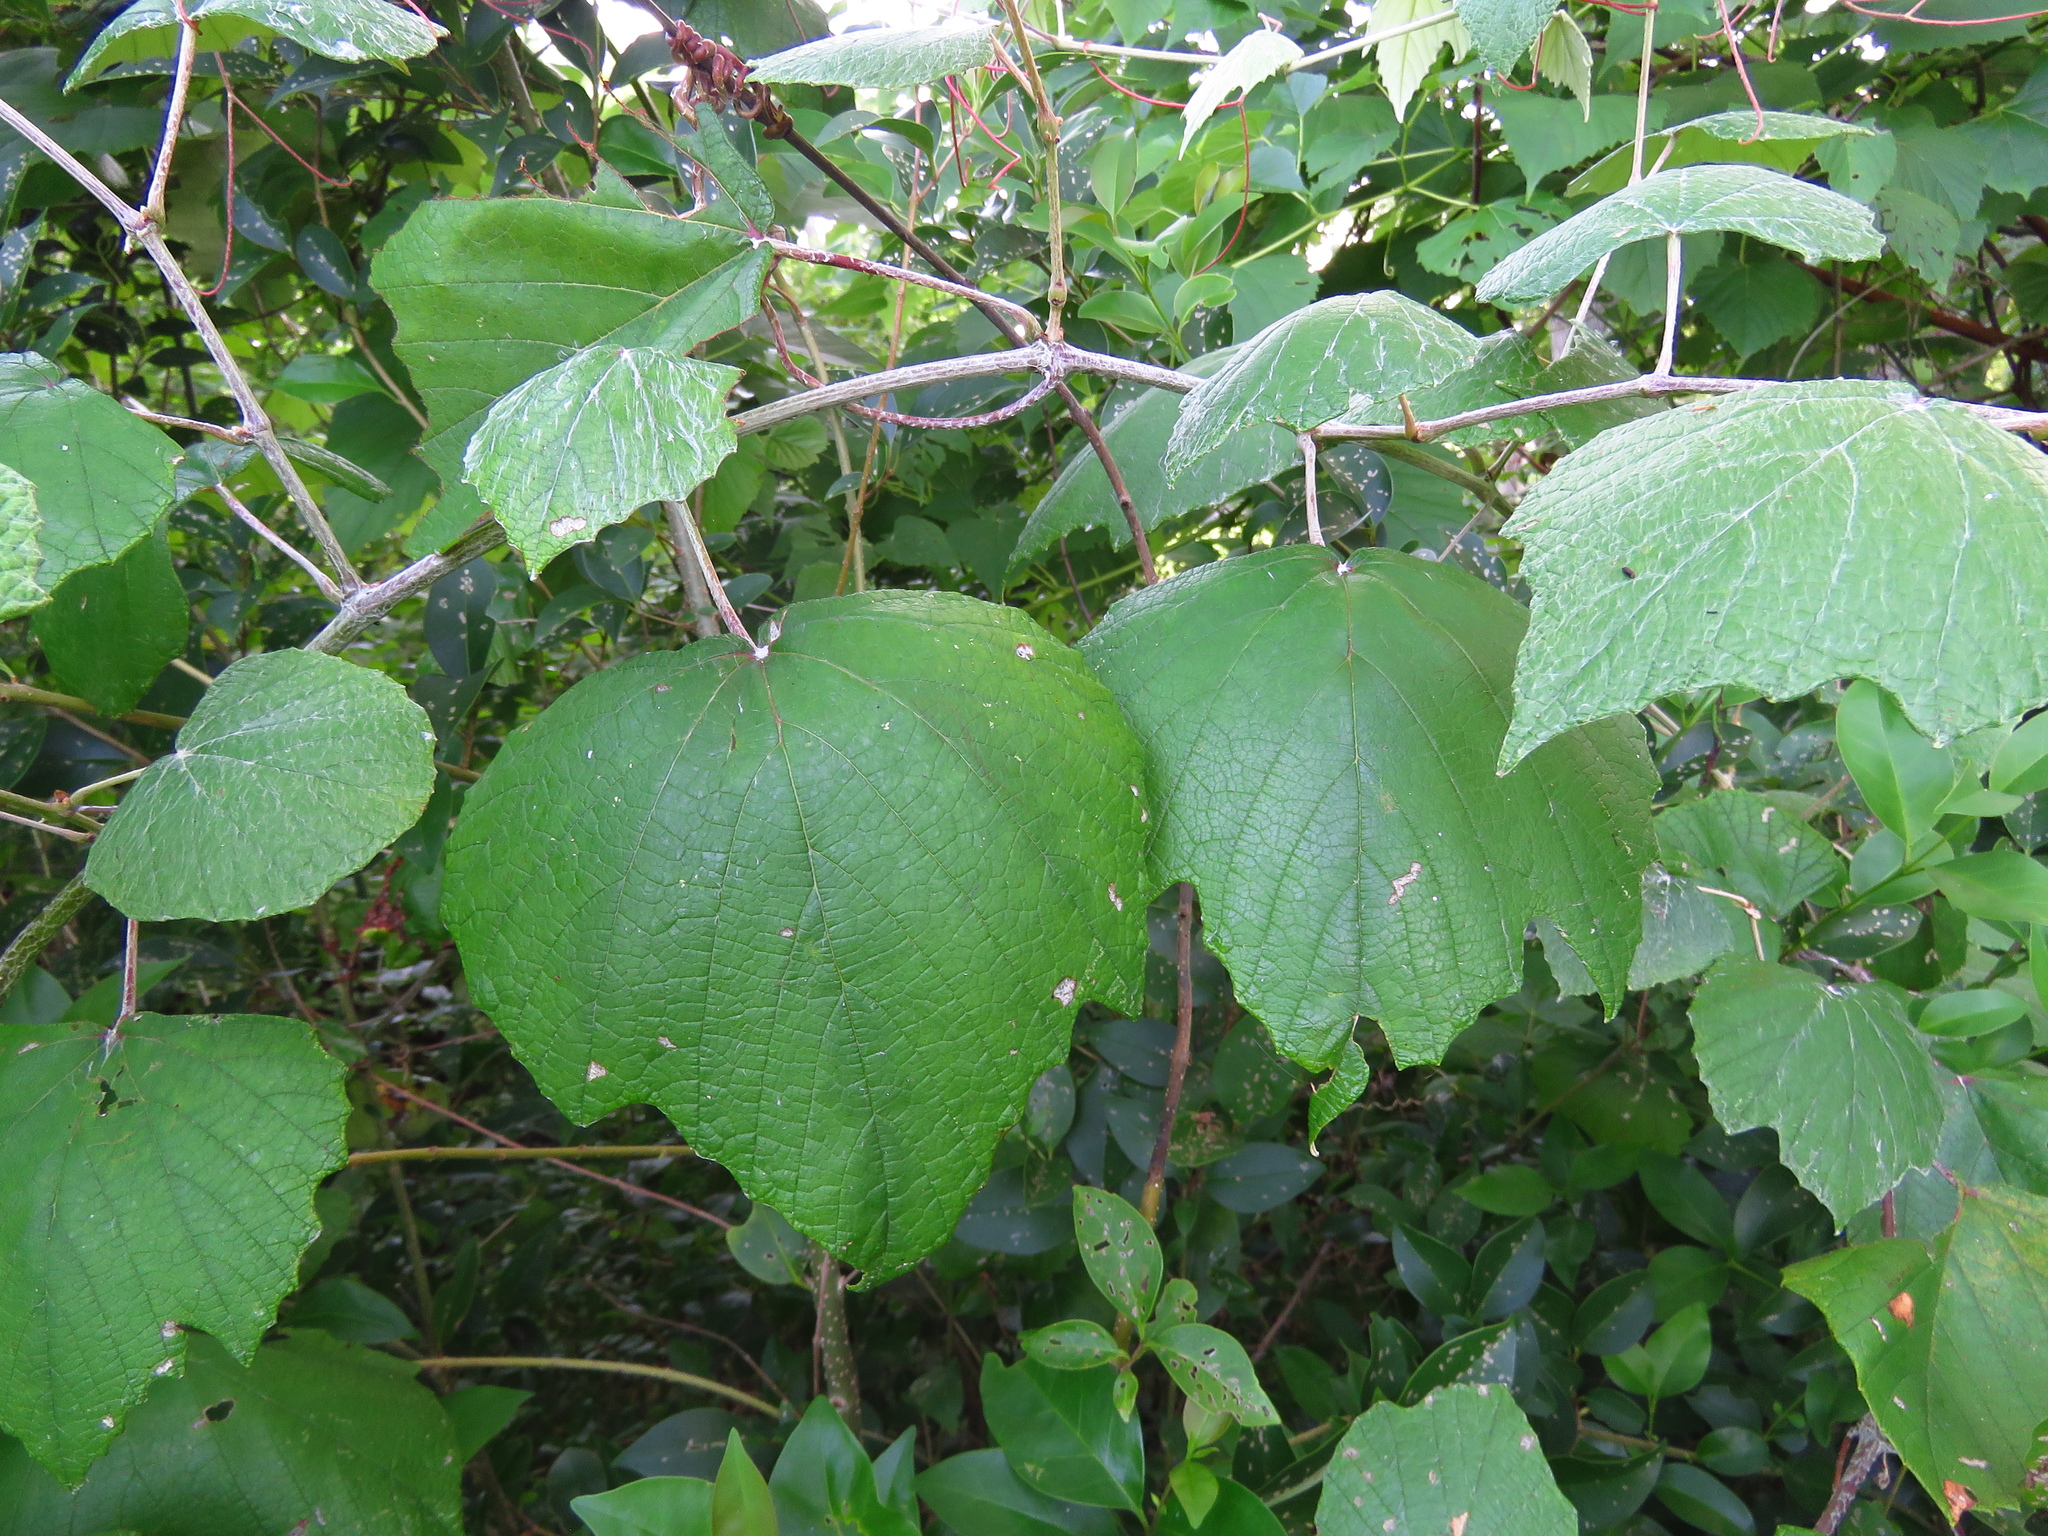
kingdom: Plantae
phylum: Tracheophyta
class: Magnoliopsida
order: Vitales
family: Vitaceae
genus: Vitis
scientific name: Vitis mustangensis
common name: Mustang grape
